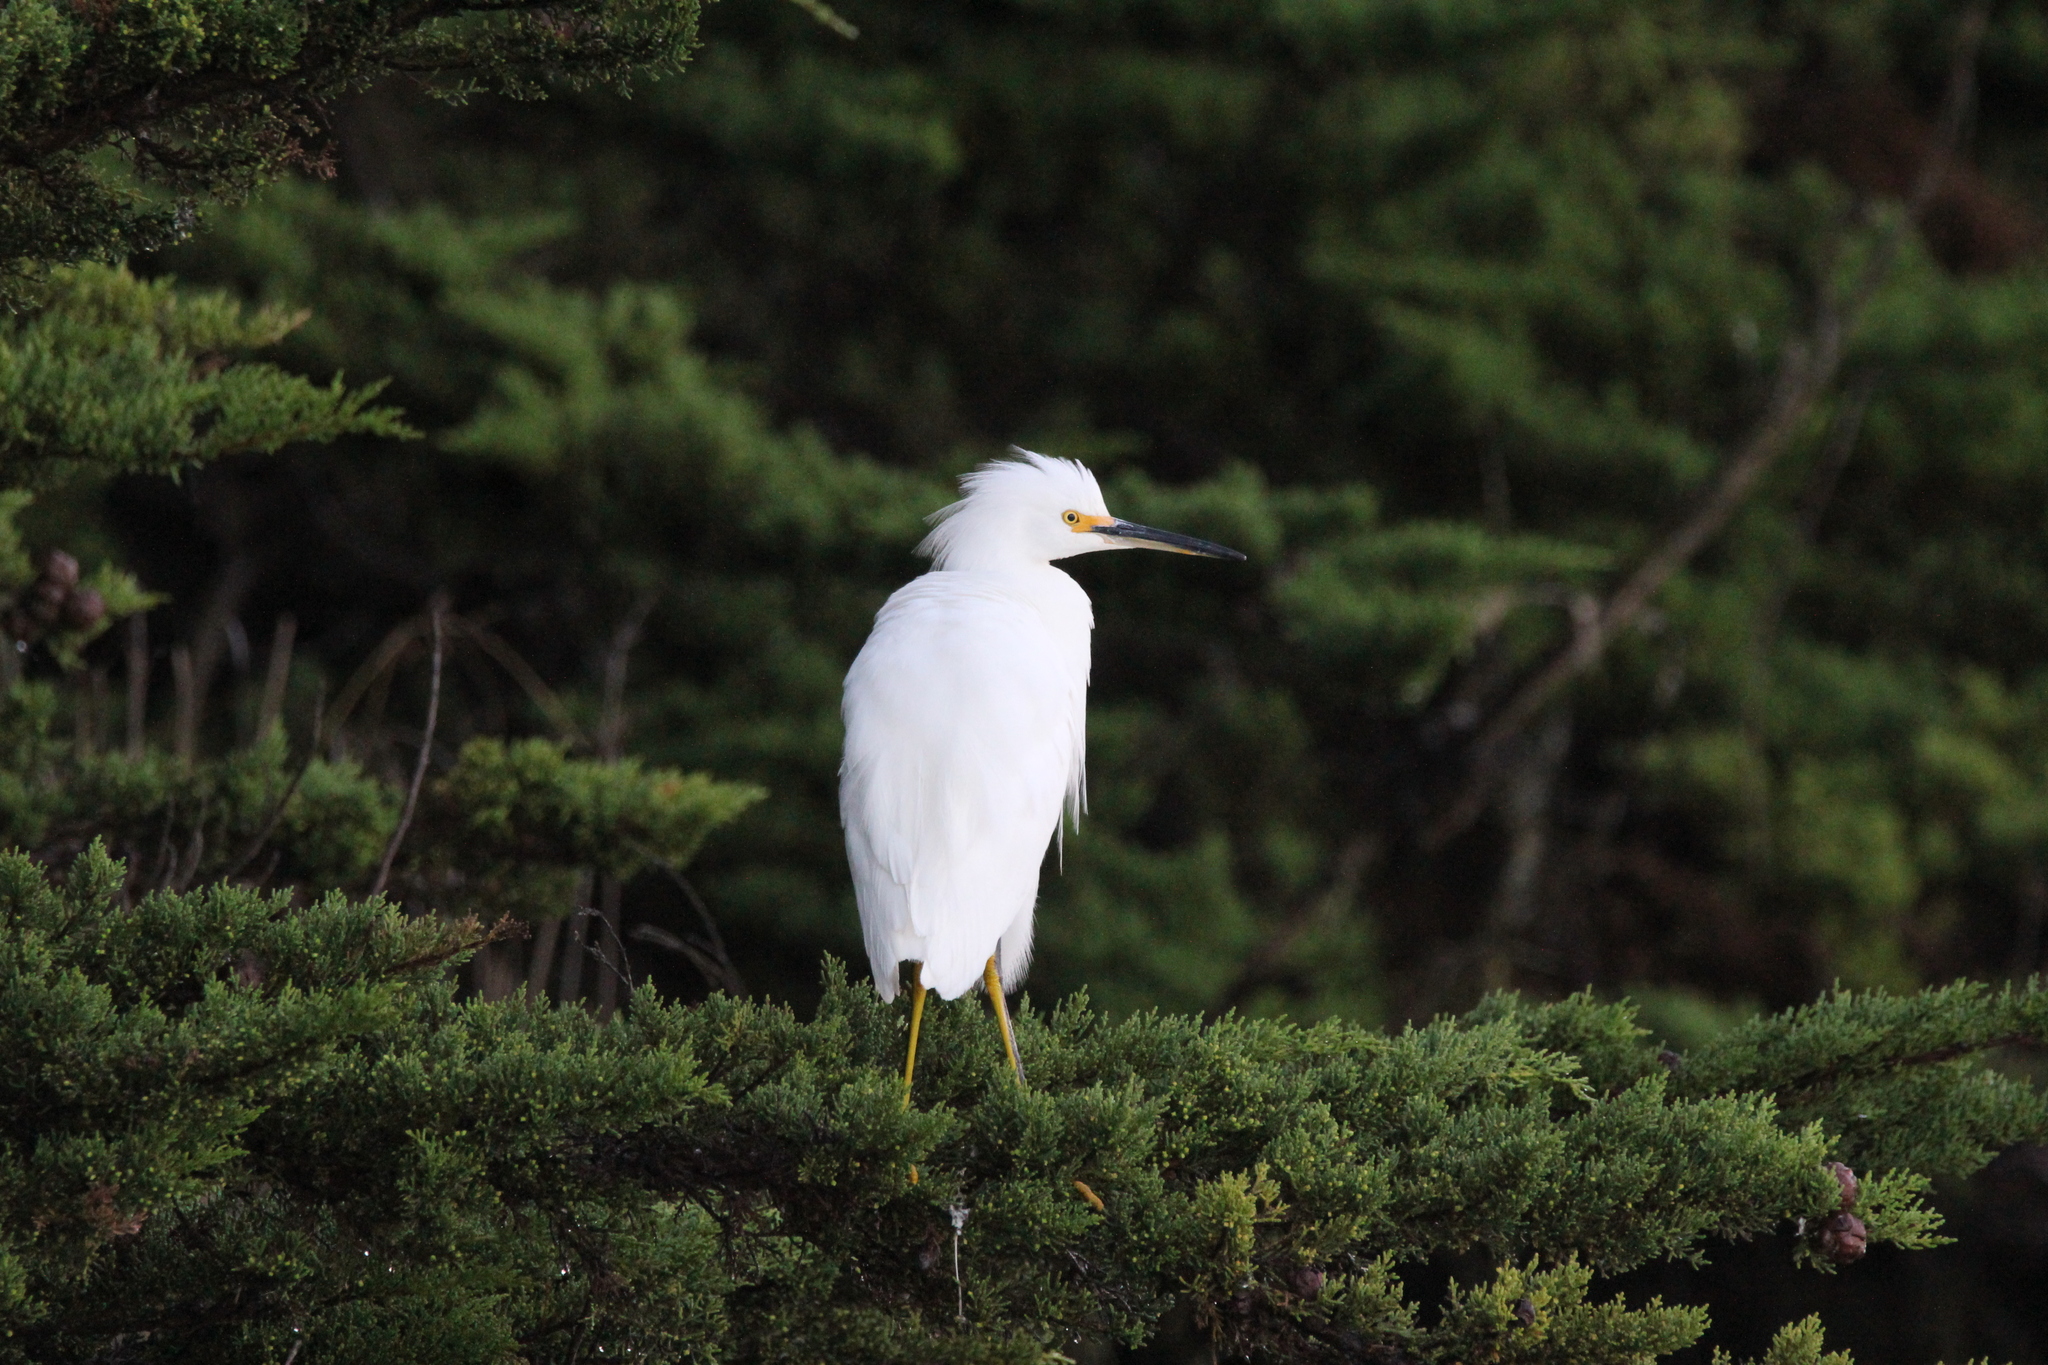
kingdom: Animalia
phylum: Chordata
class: Aves
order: Pelecaniformes
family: Ardeidae
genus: Egretta
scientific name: Egretta thula
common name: Snowy egret
